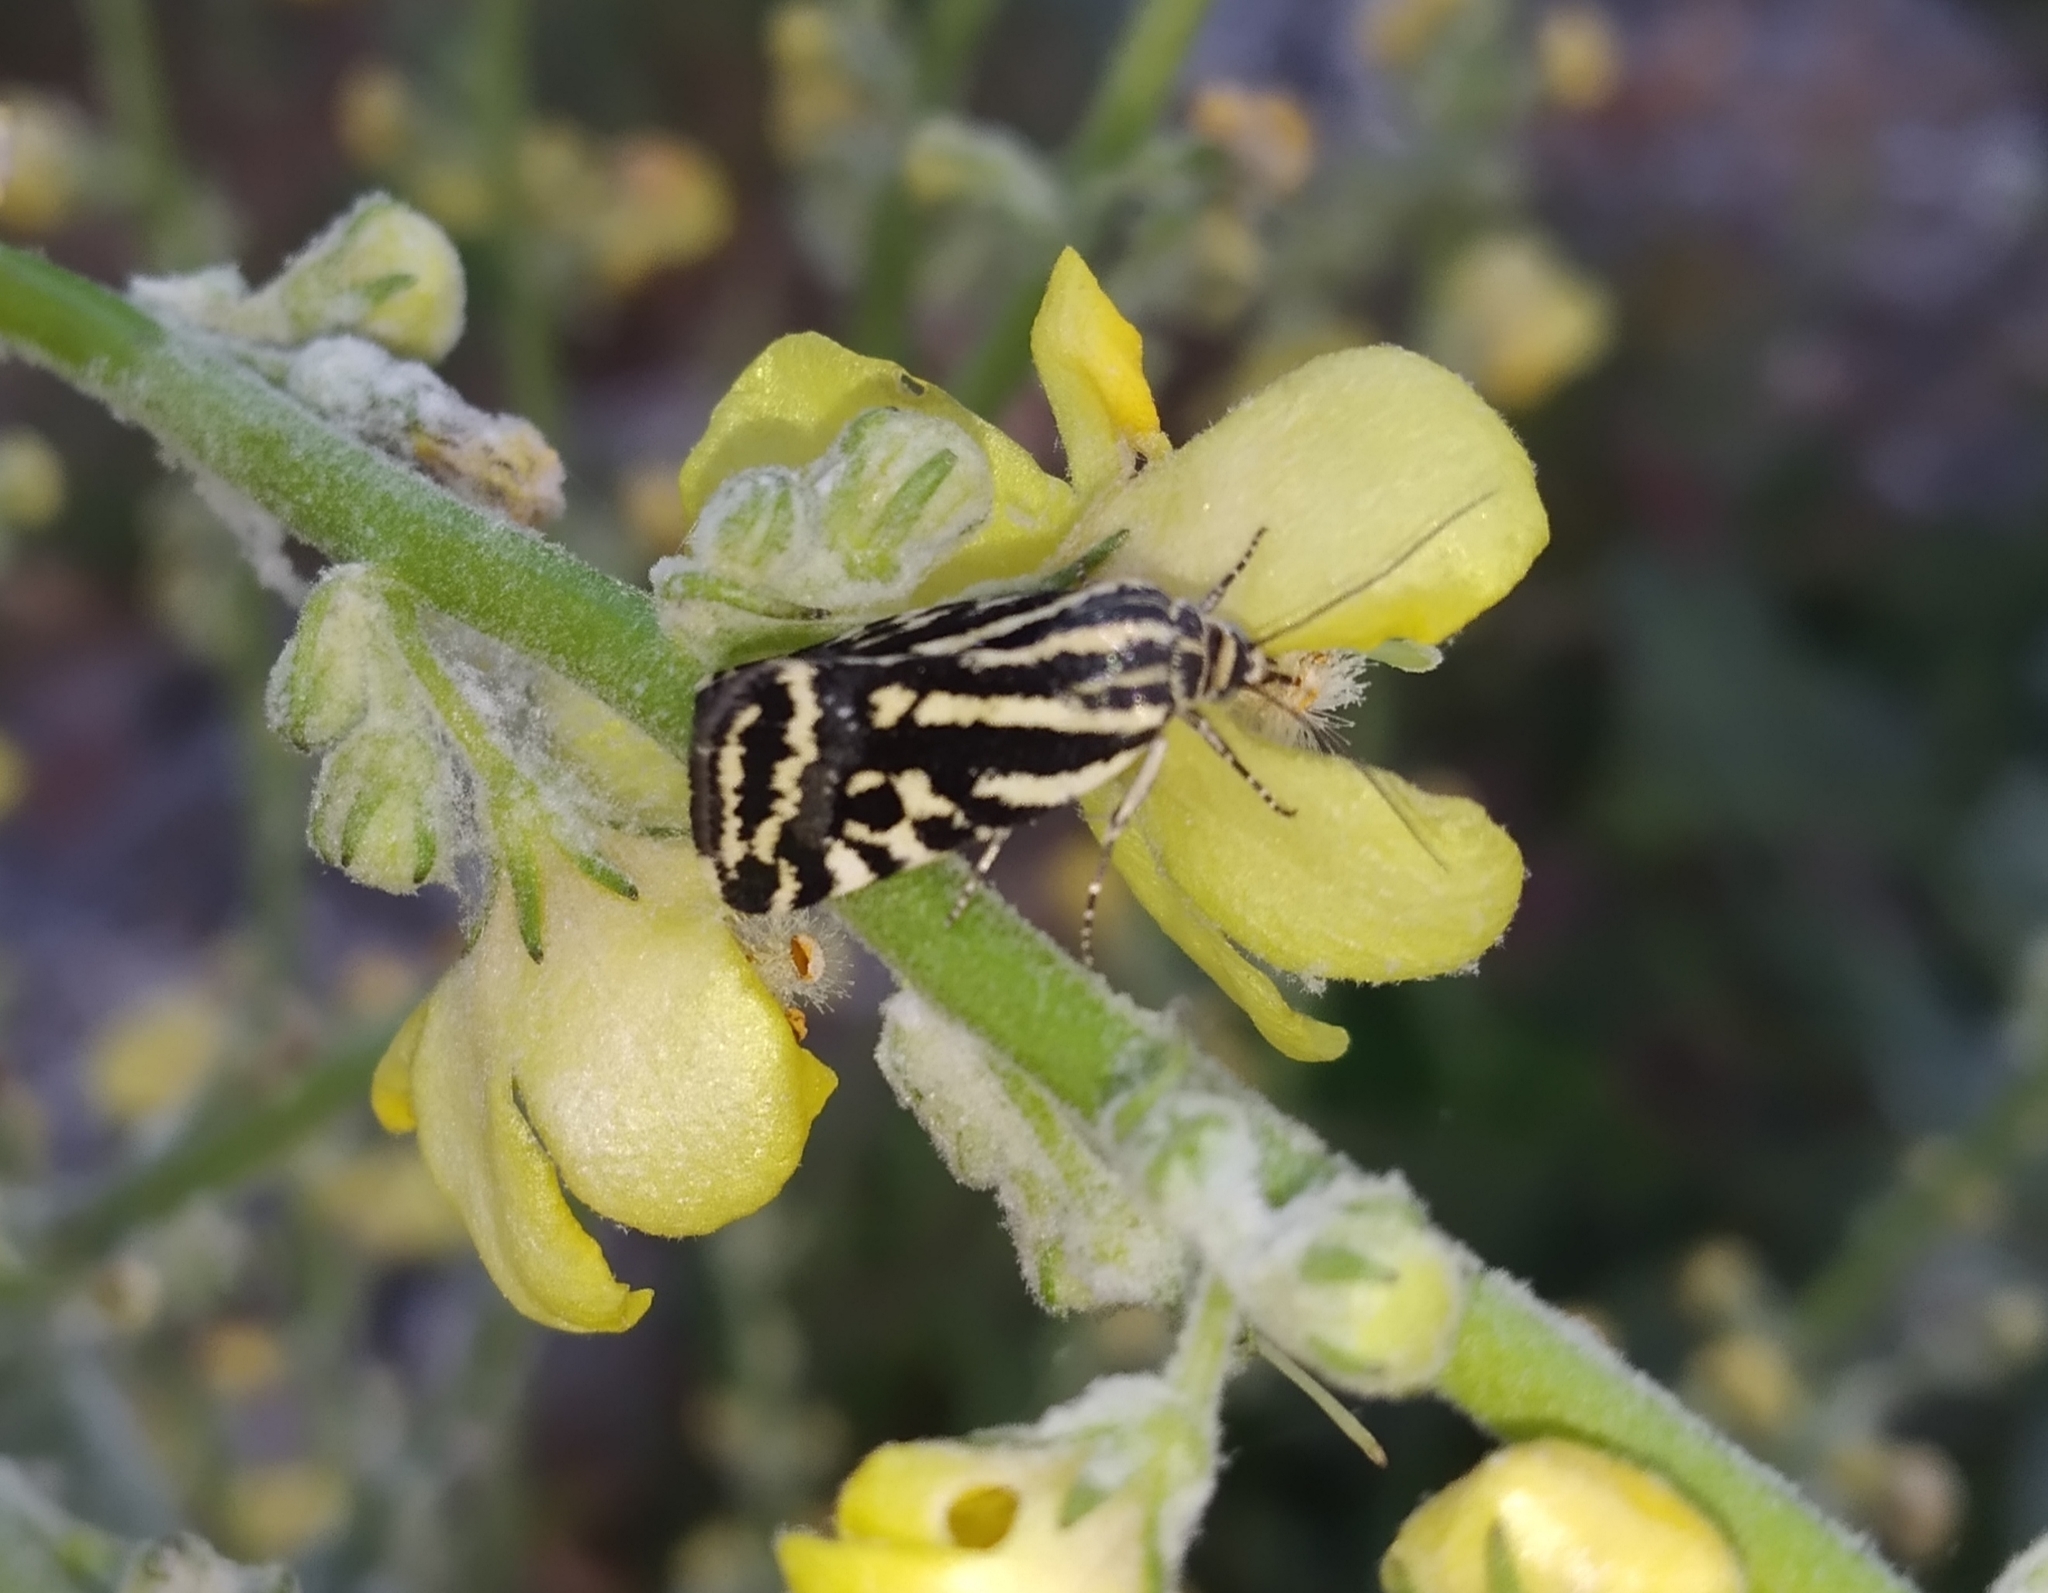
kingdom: Animalia
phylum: Arthropoda
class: Insecta
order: Lepidoptera
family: Noctuidae
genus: Acontia
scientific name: Acontia trabealis
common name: Spotted sulphur
